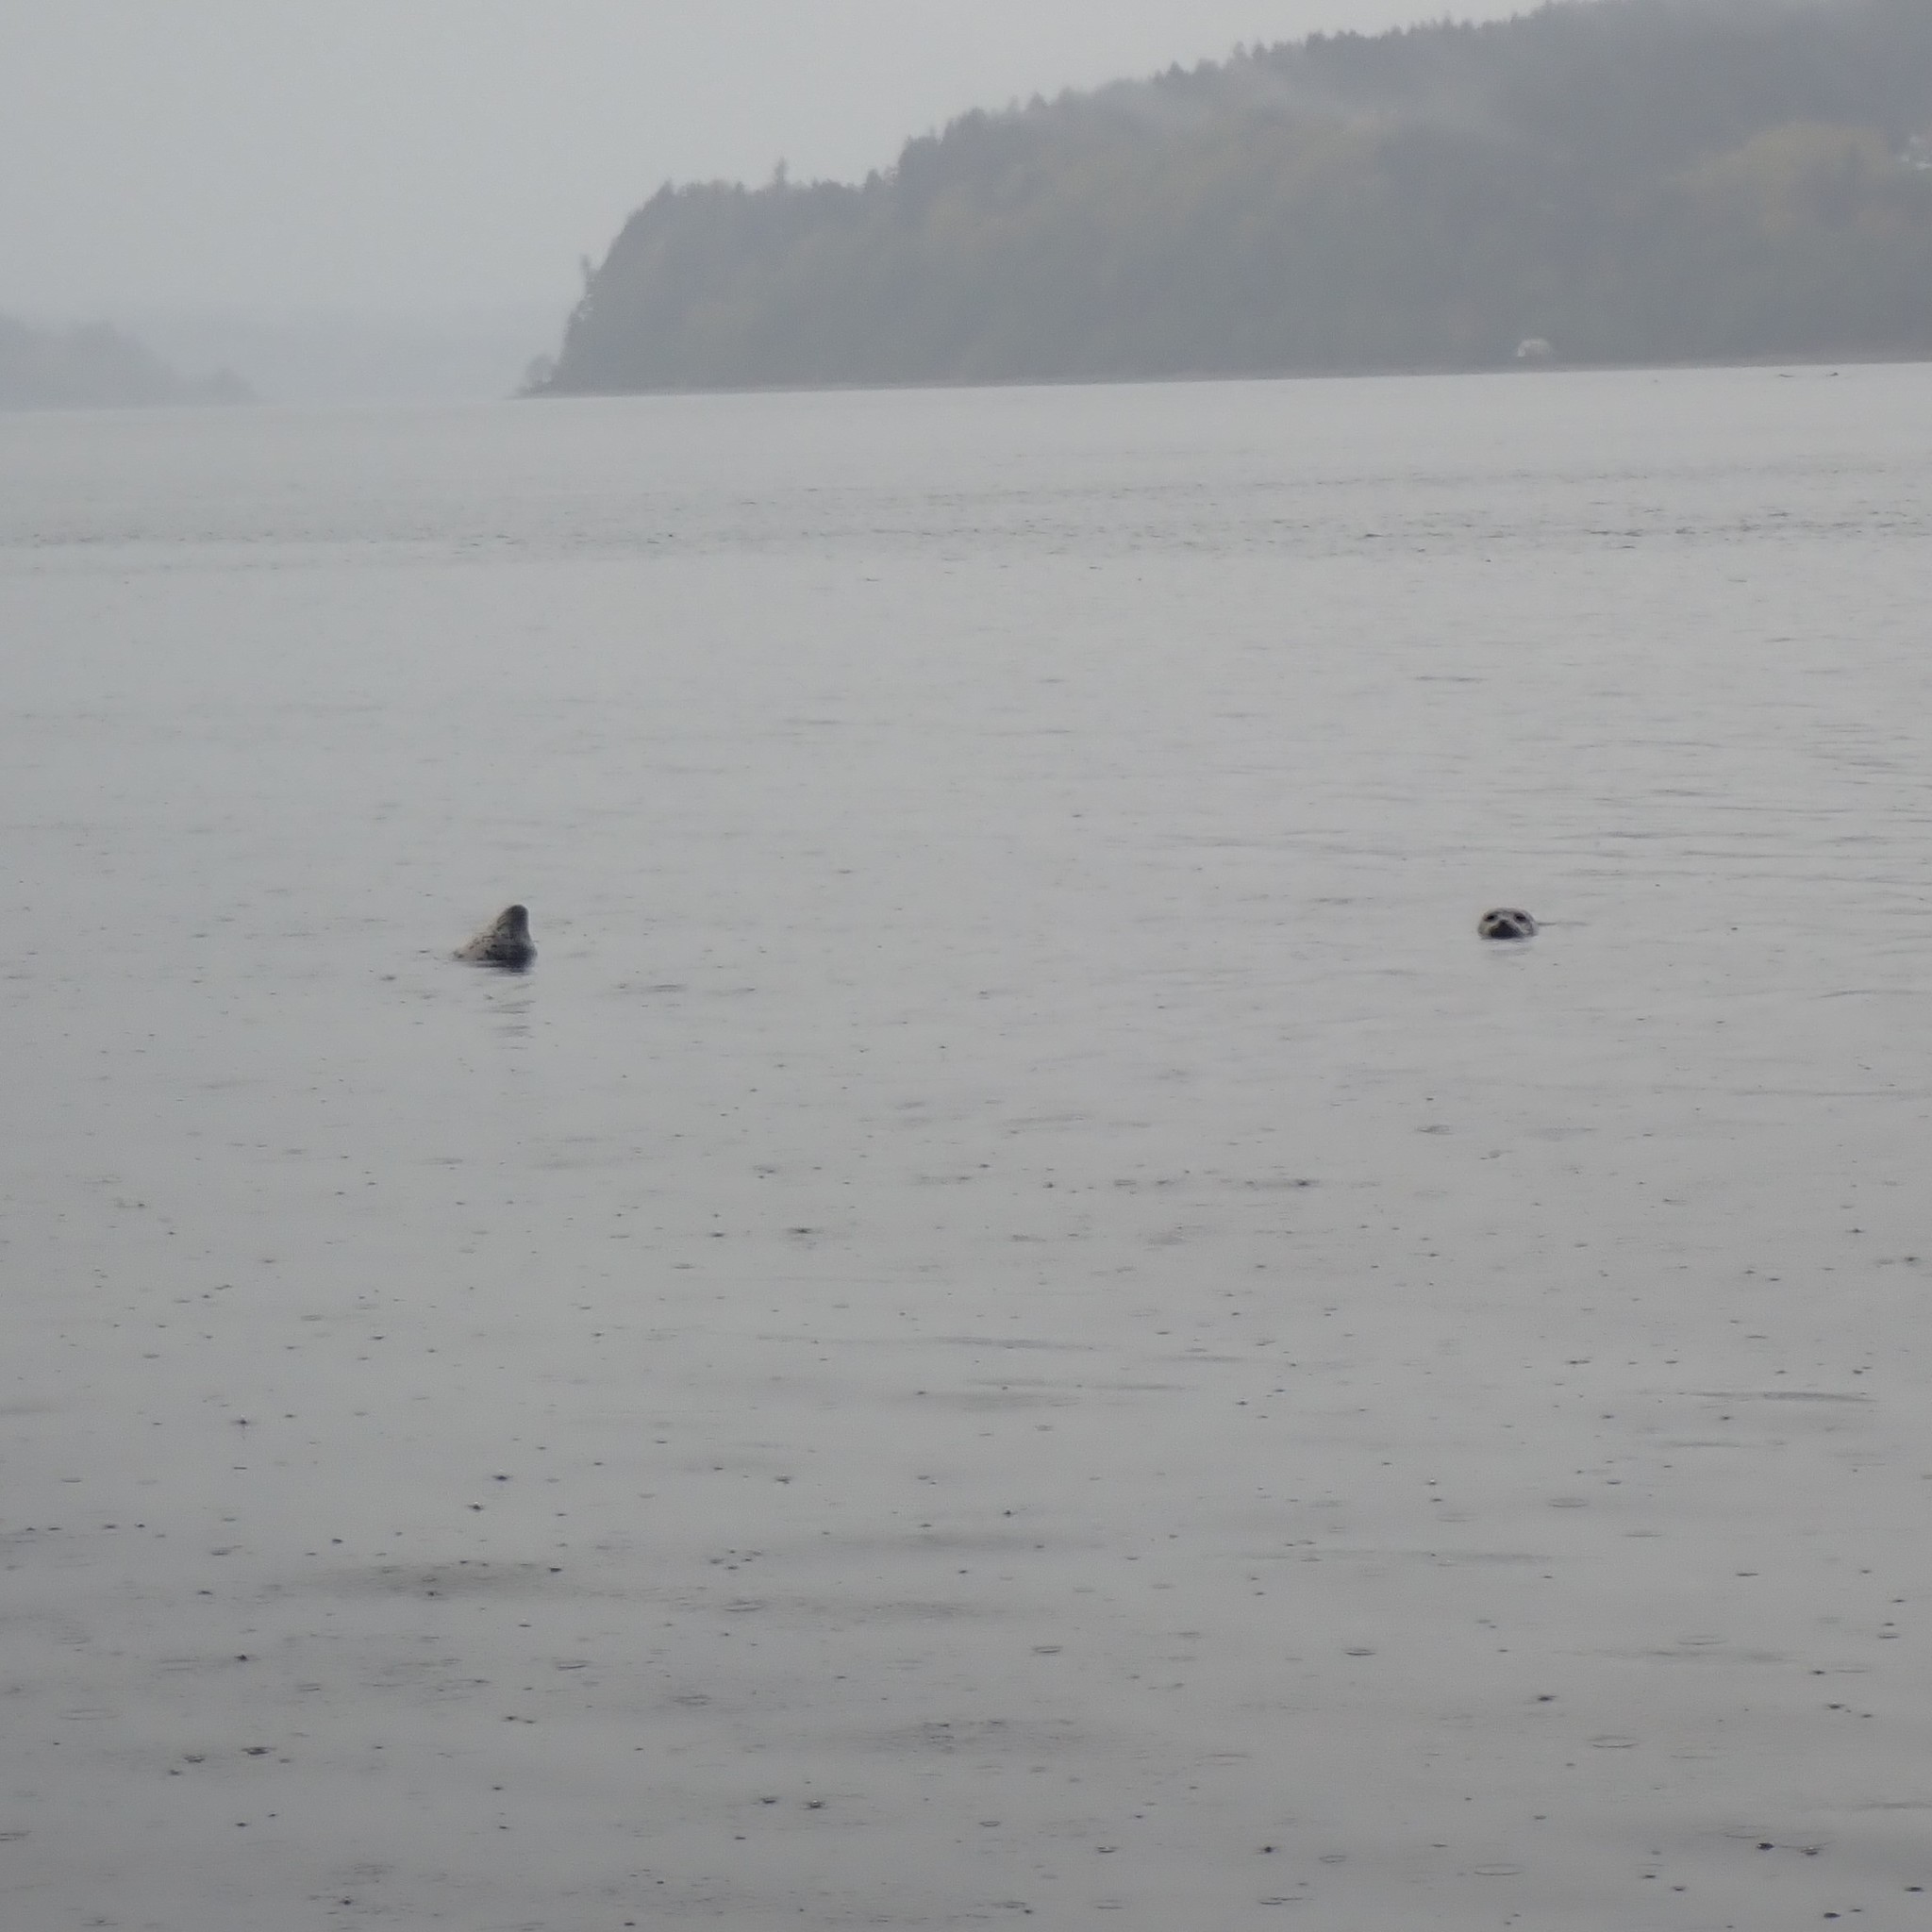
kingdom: Animalia
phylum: Chordata
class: Mammalia
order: Carnivora
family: Phocidae
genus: Phoca
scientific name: Phoca vitulina
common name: Harbor seal
